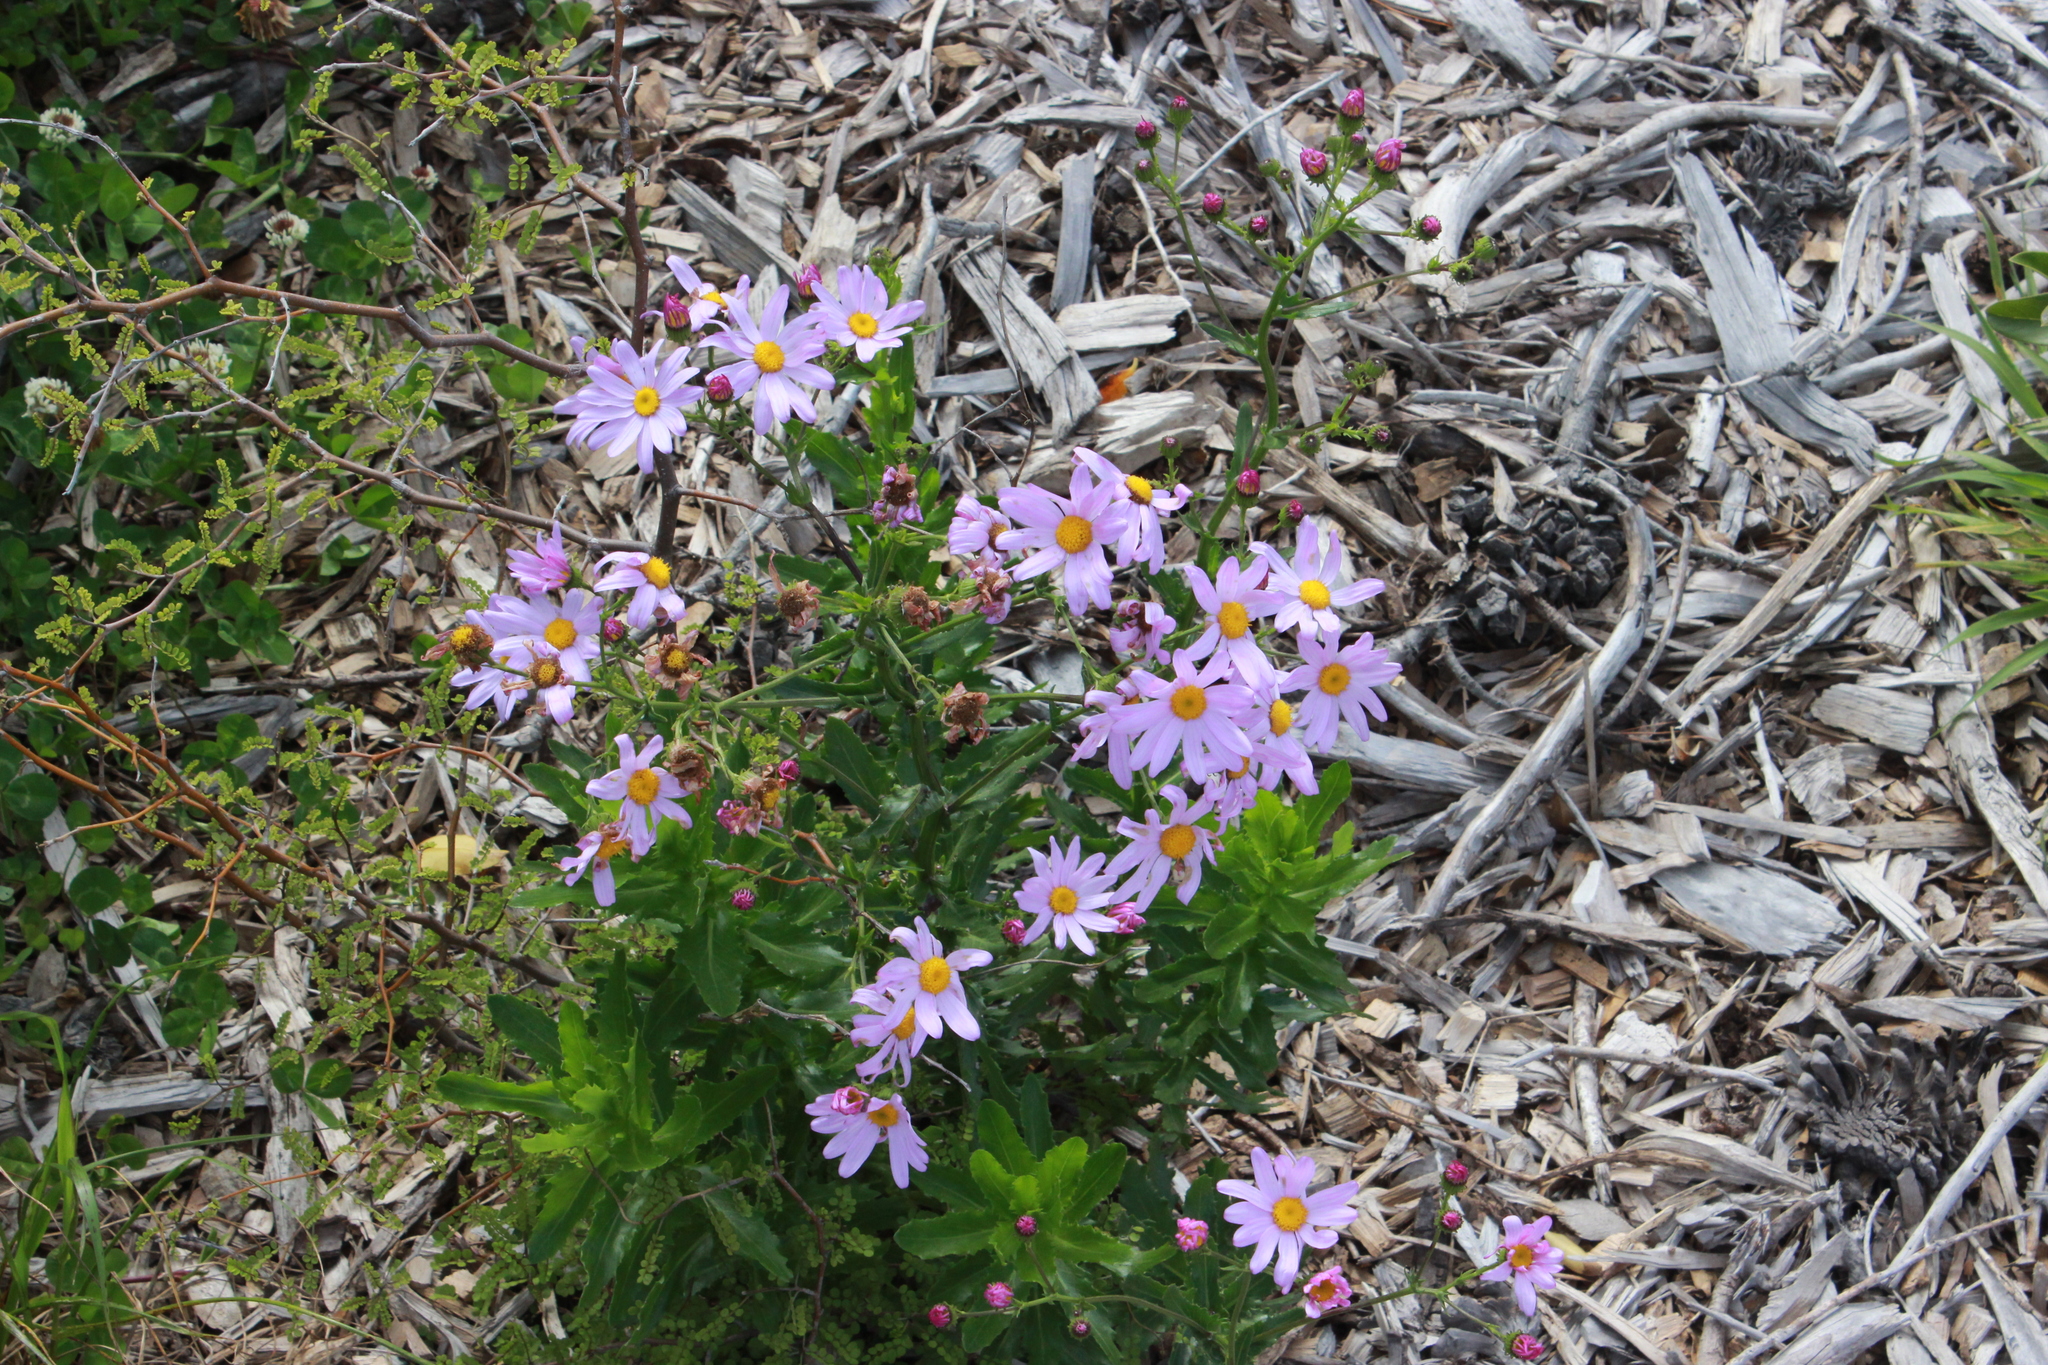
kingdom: Plantae
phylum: Tracheophyta
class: Magnoliopsida
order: Asterales
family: Asteraceae
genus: Senecio
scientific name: Senecio glastifolius
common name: Woad-leaved ragwort
